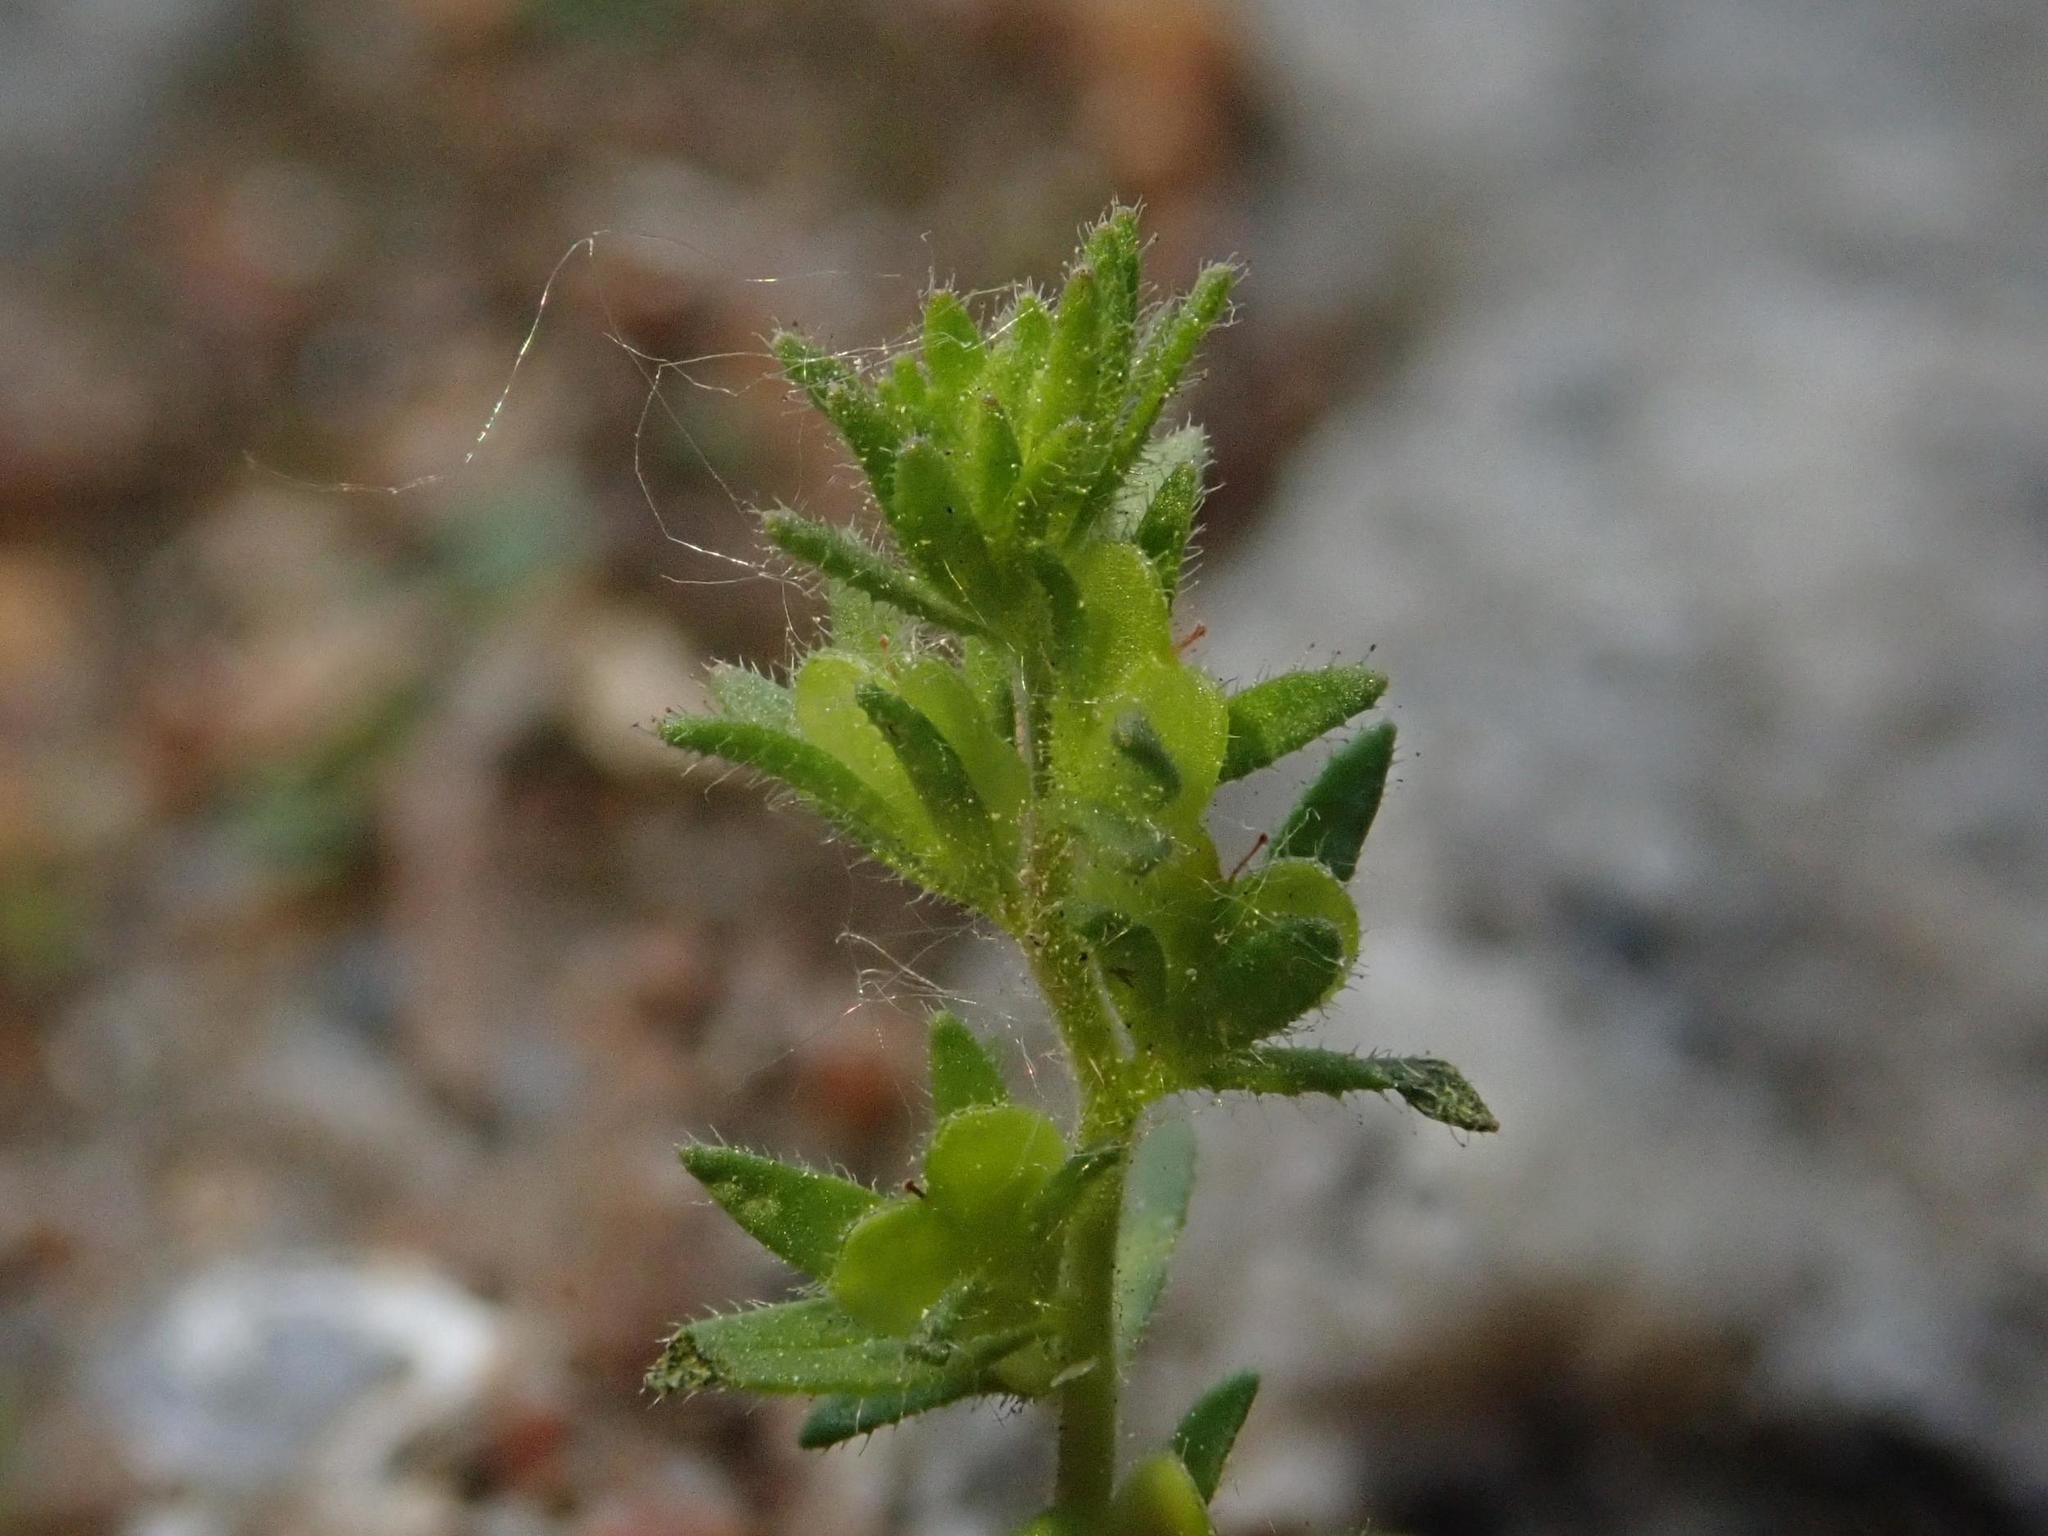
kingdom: Plantae
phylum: Tracheophyta
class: Magnoliopsida
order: Lamiales
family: Plantaginaceae
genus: Veronica
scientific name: Veronica arvensis
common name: Corn speedwell
